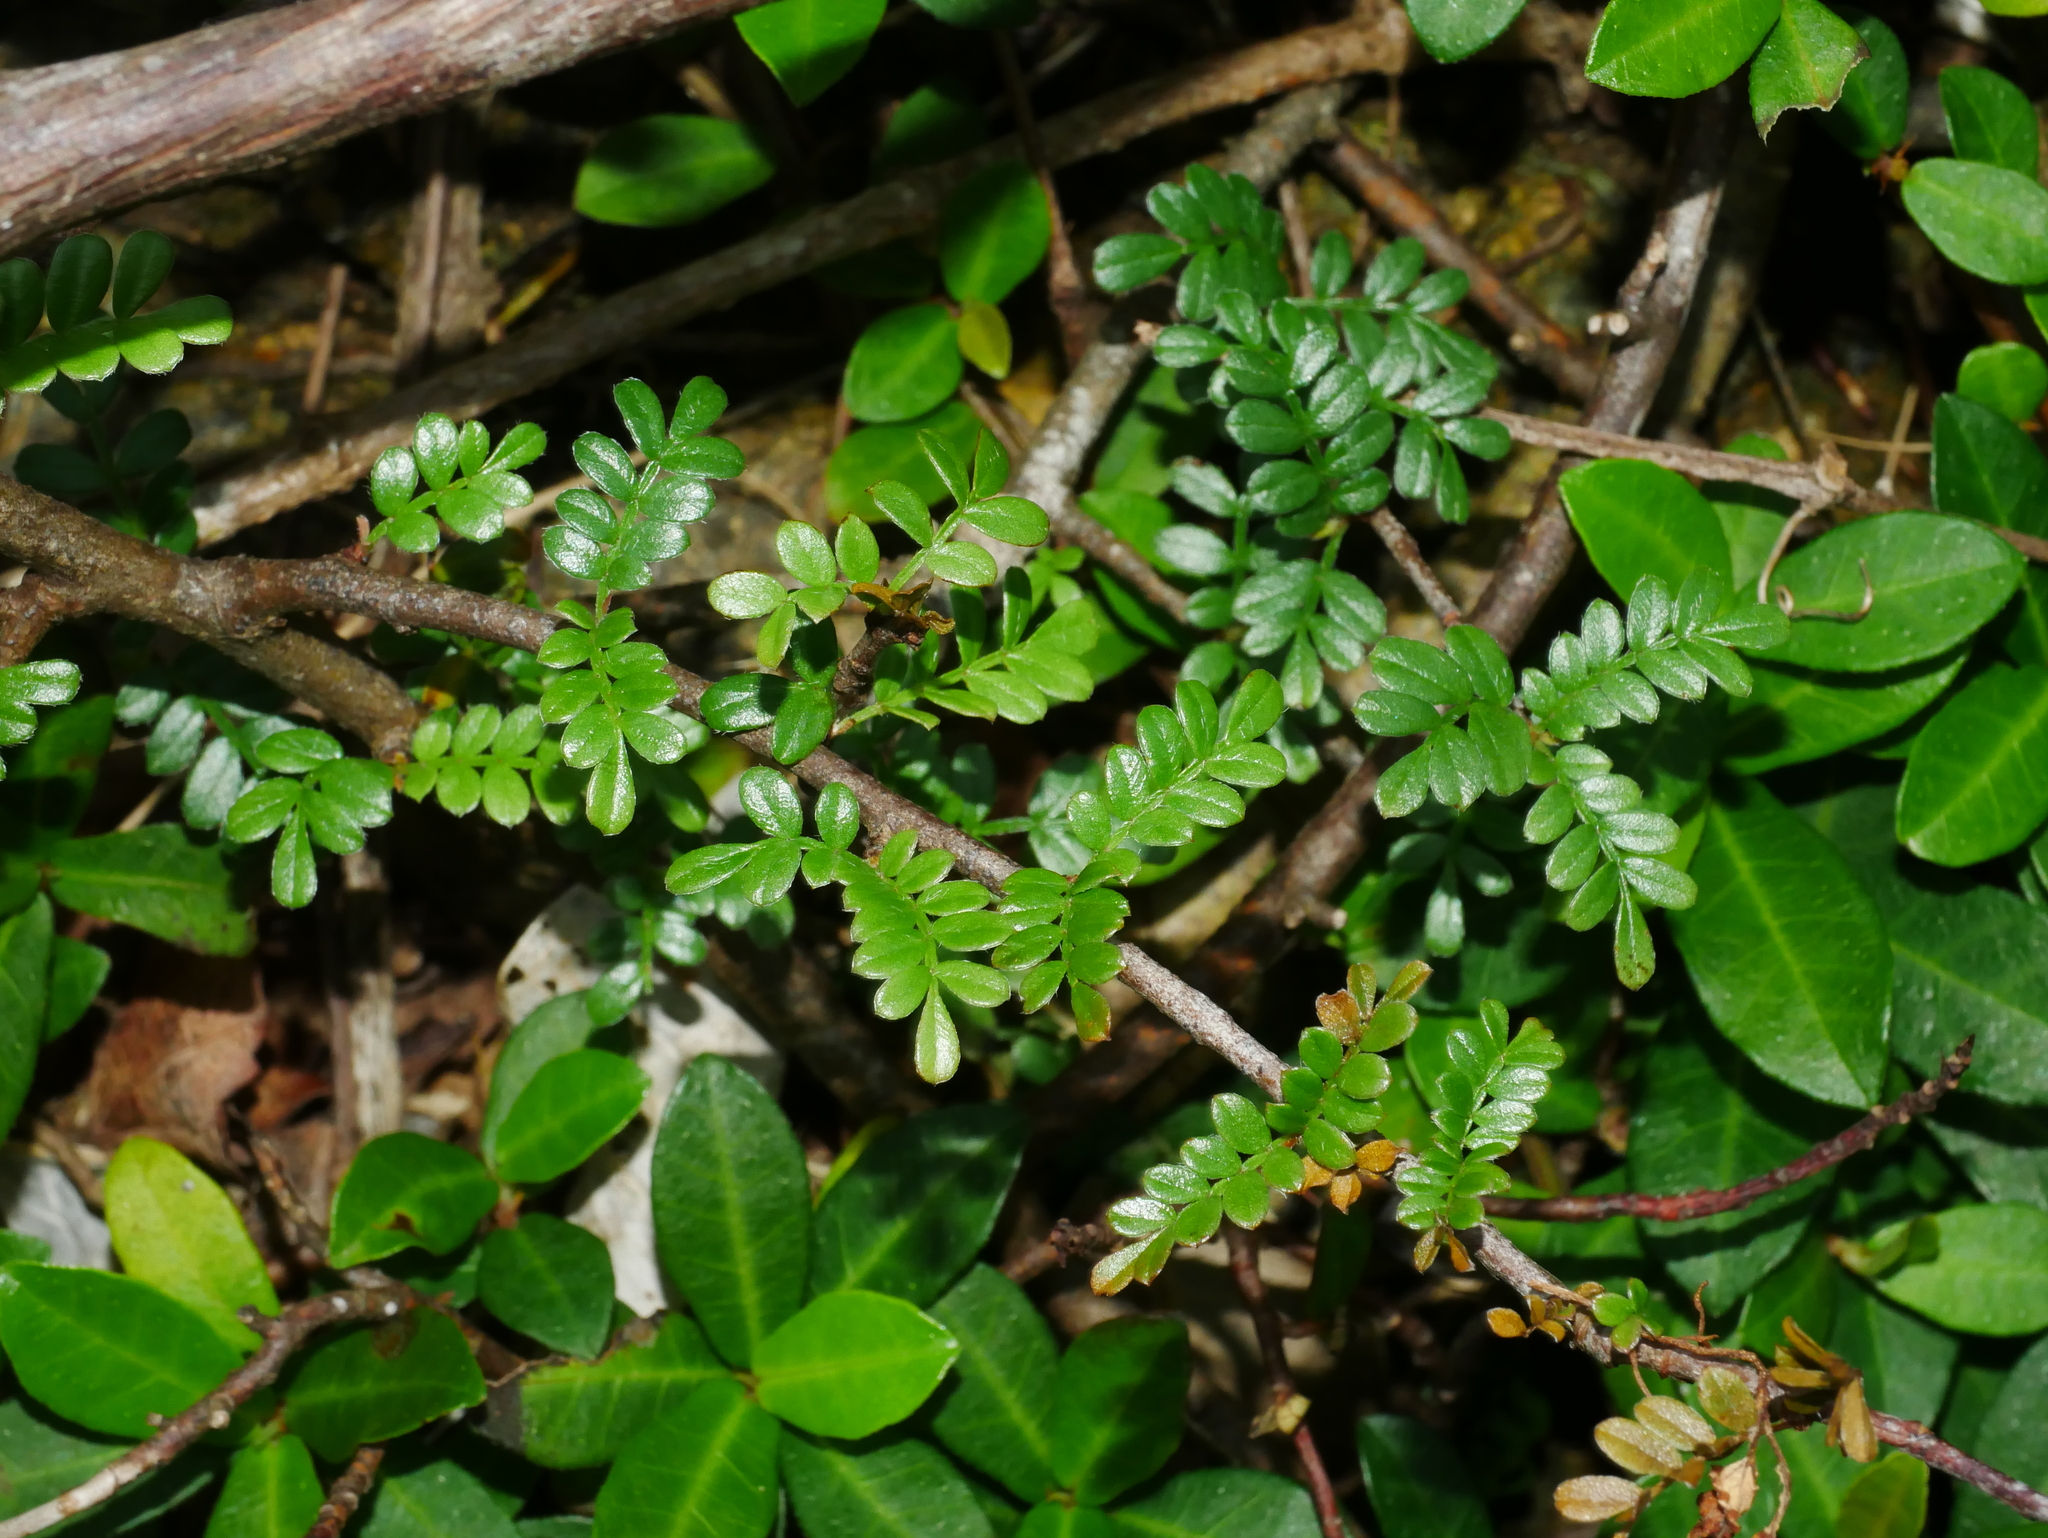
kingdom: Plantae
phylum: Tracheophyta
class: Magnoliopsida
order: Rosales
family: Rosaceae
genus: Osteomeles
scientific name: Osteomeles anthyllidifolia
